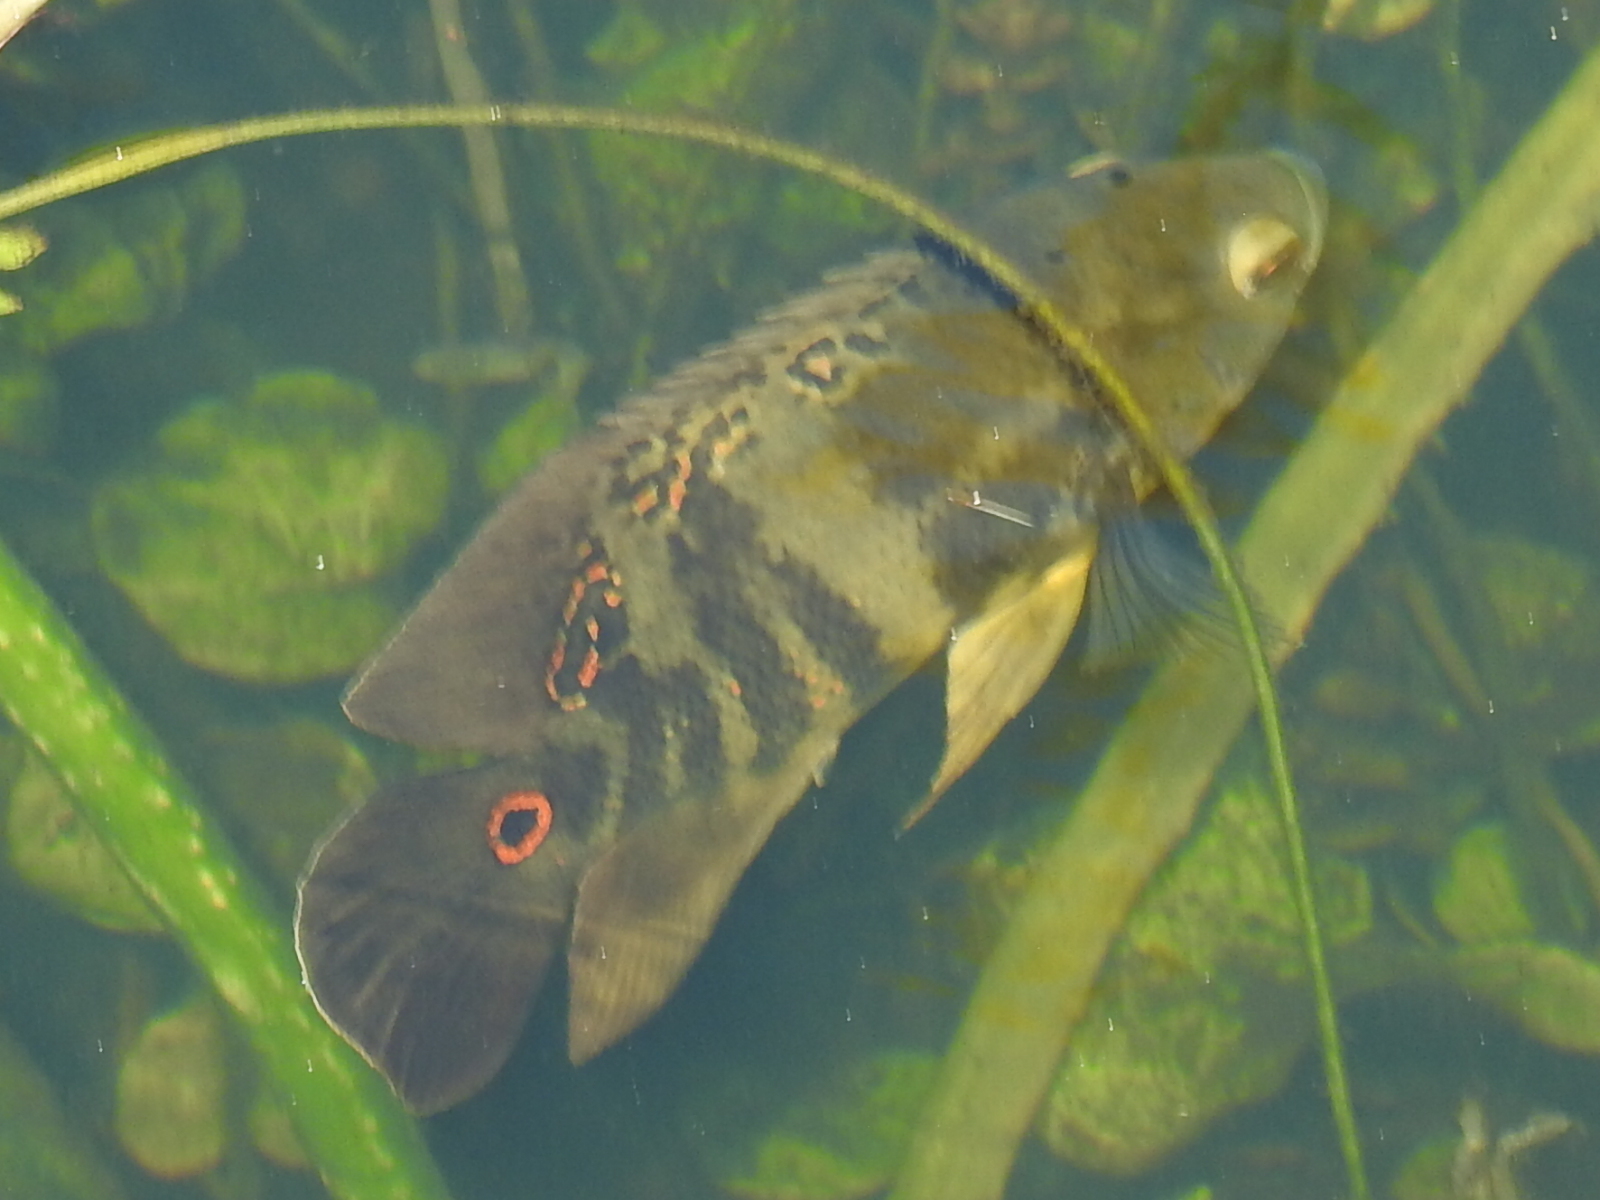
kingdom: Animalia
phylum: Chordata
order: Perciformes
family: Cichlidae
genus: Astronotus
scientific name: Astronotus ocellatus
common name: Oscar
